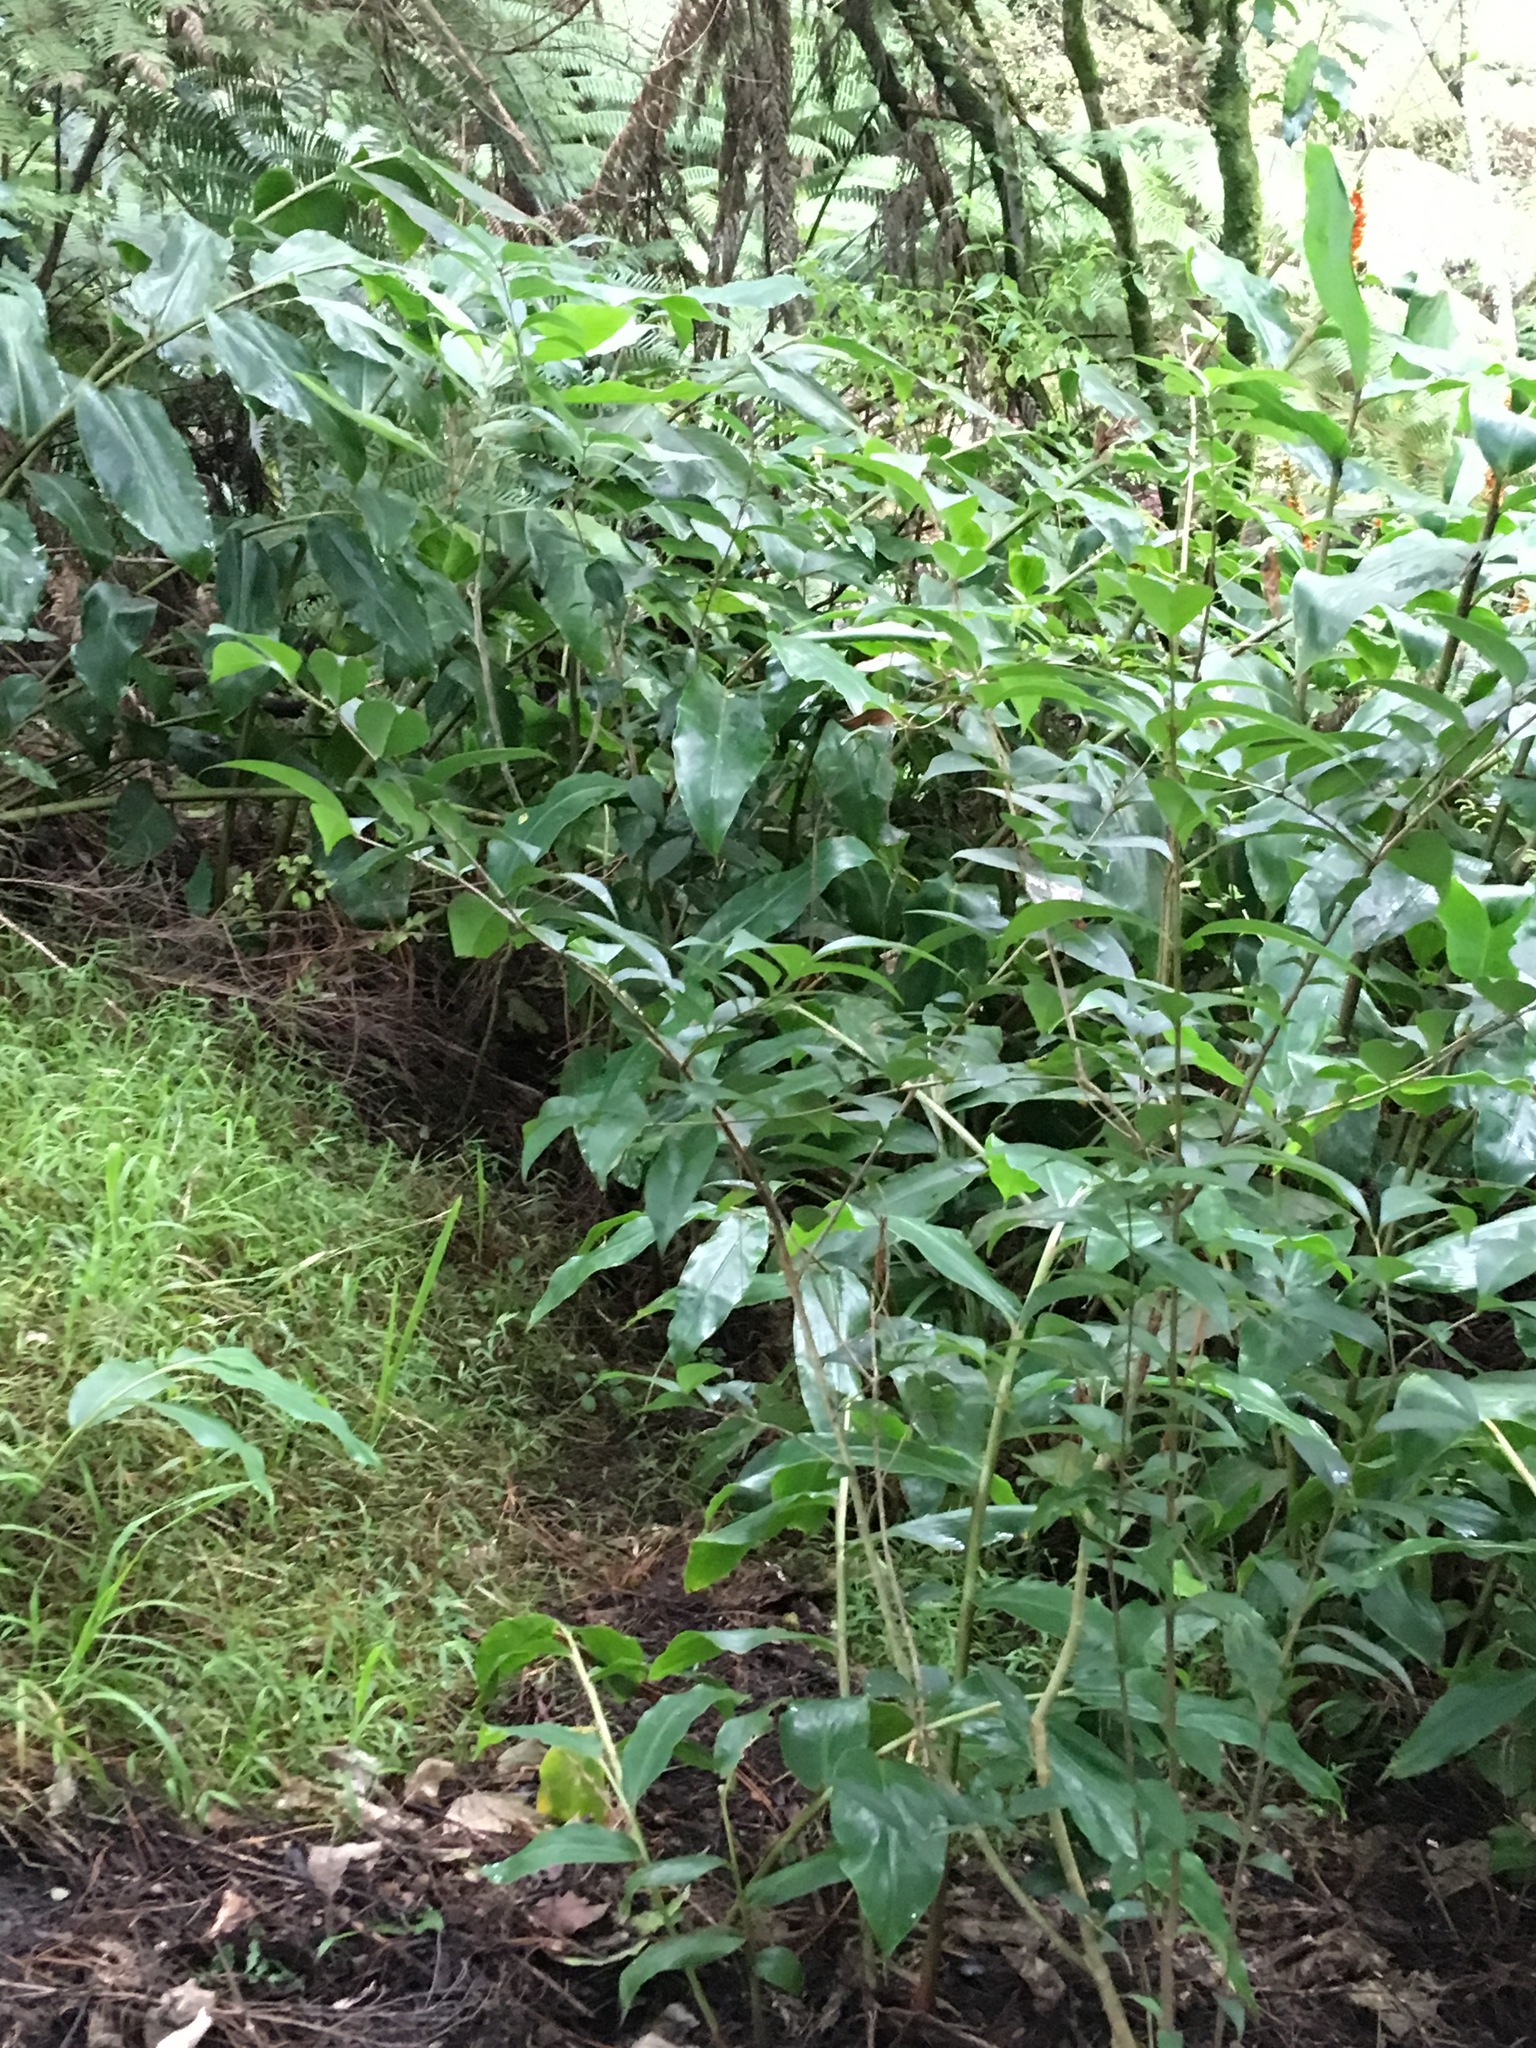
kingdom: Plantae
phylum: Tracheophyta
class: Liliopsida
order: Zingiberales
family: Zingiberaceae
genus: Hedychium
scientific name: Hedychium gardnerianum
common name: Himalayan ginger
